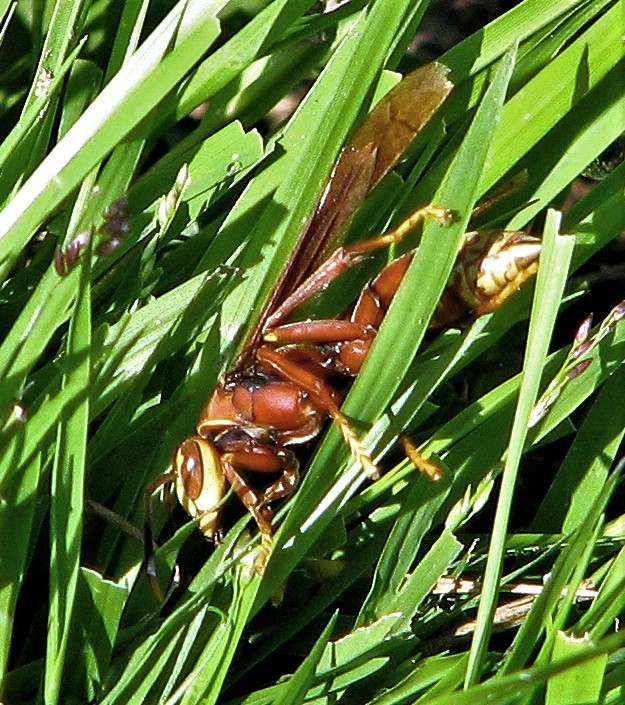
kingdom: Animalia
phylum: Arthropoda
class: Insecta
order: Hymenoptera
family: Eumenidae
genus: Polistes
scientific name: Polistes cavapyta
